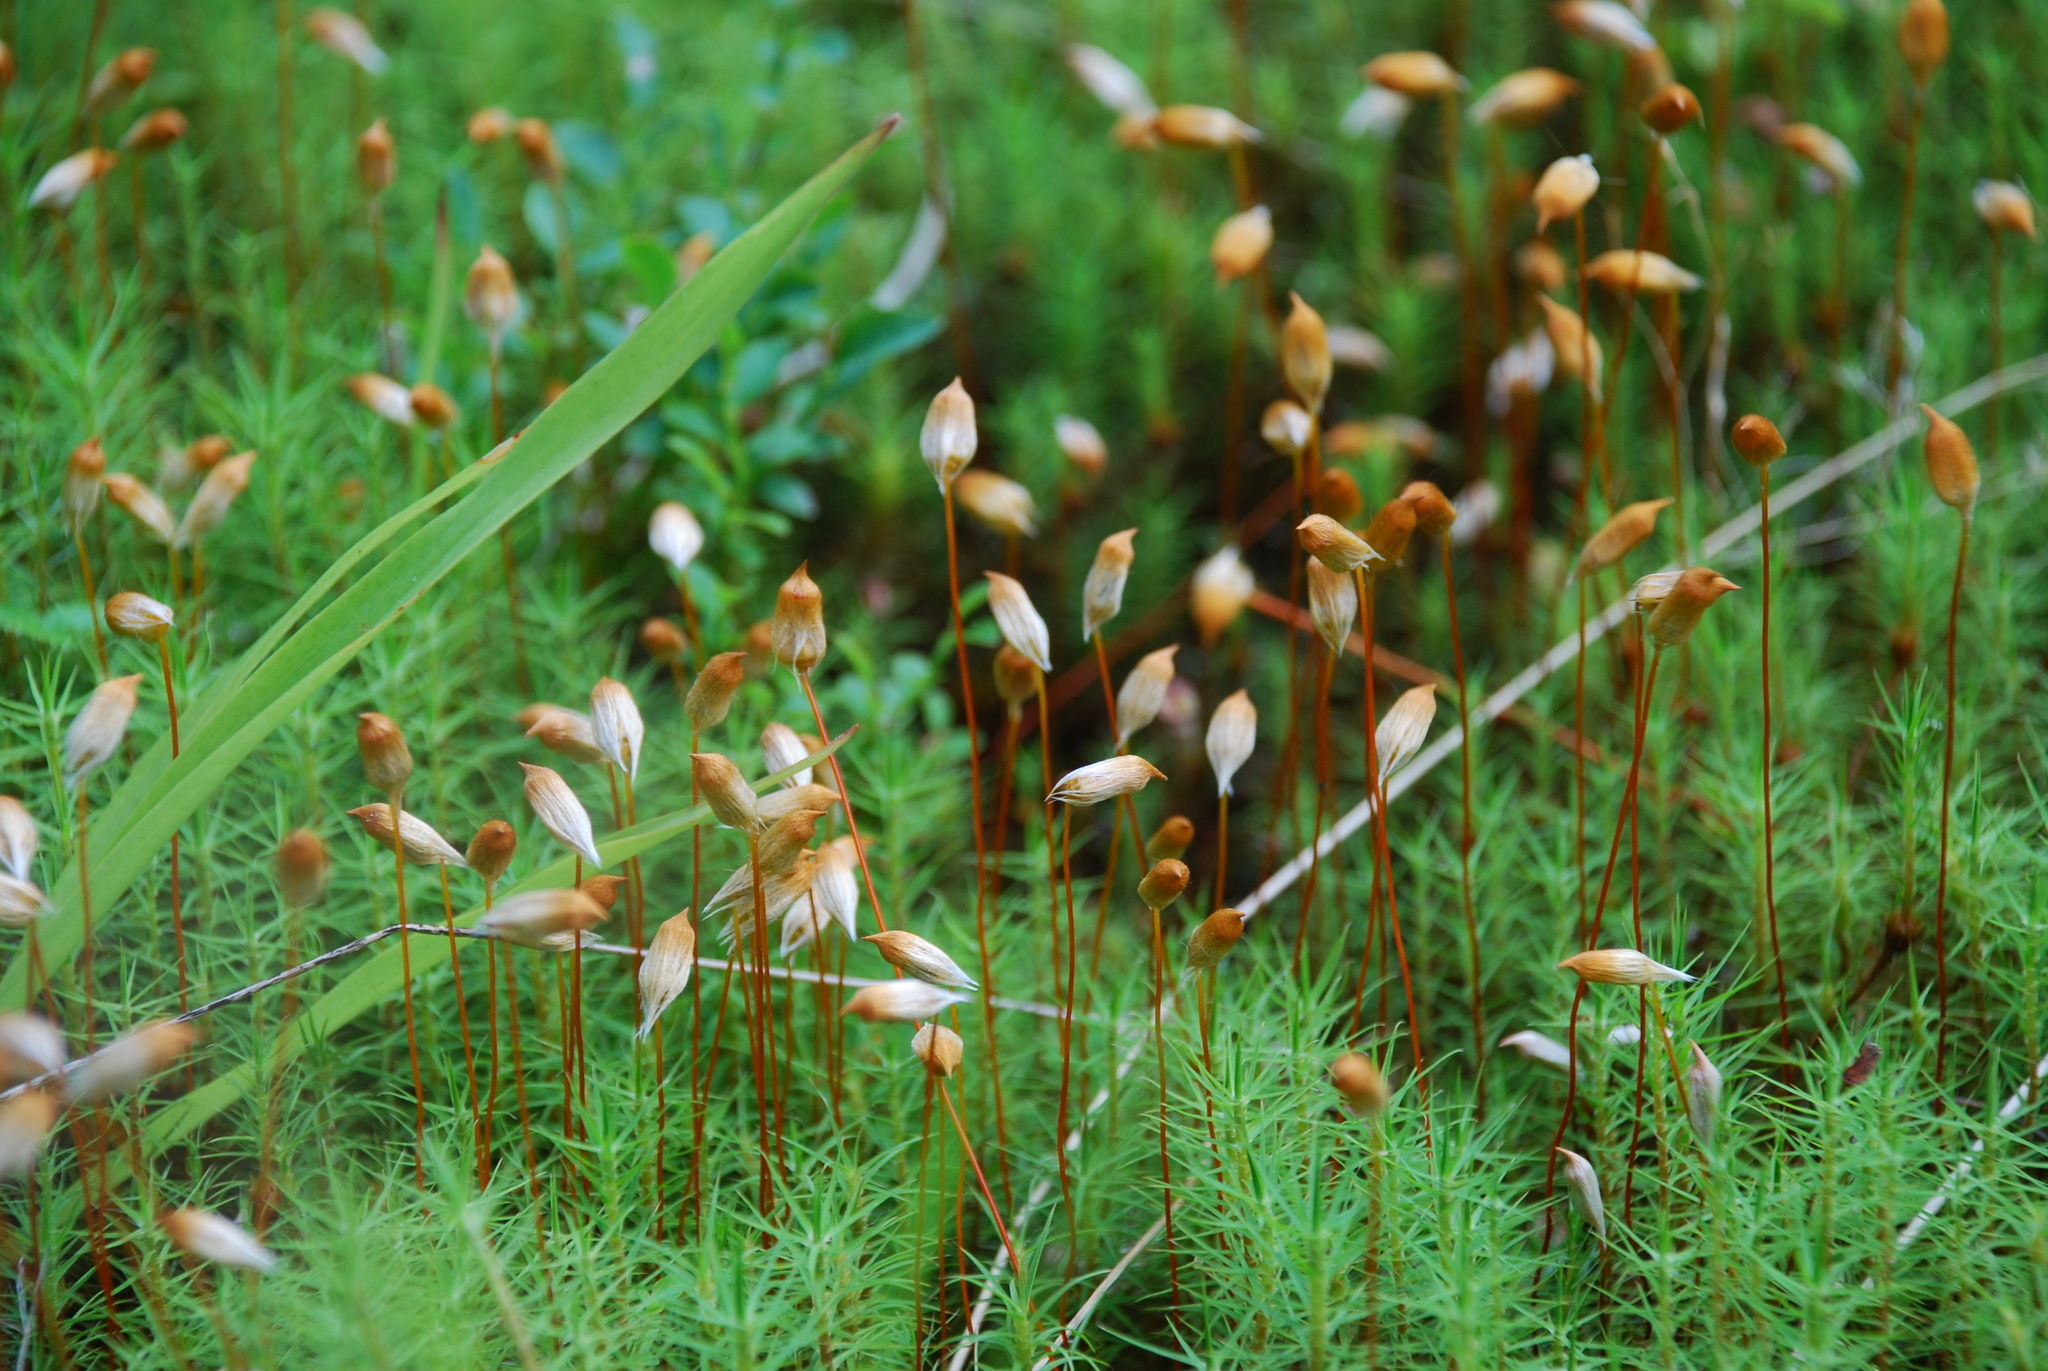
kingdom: Plantae
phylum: Bryophyta
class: Polytrichopsida
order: Polytrichales
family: Polytrichaceae
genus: Polytrichum
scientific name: Polytrichum commune
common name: Common haircap
